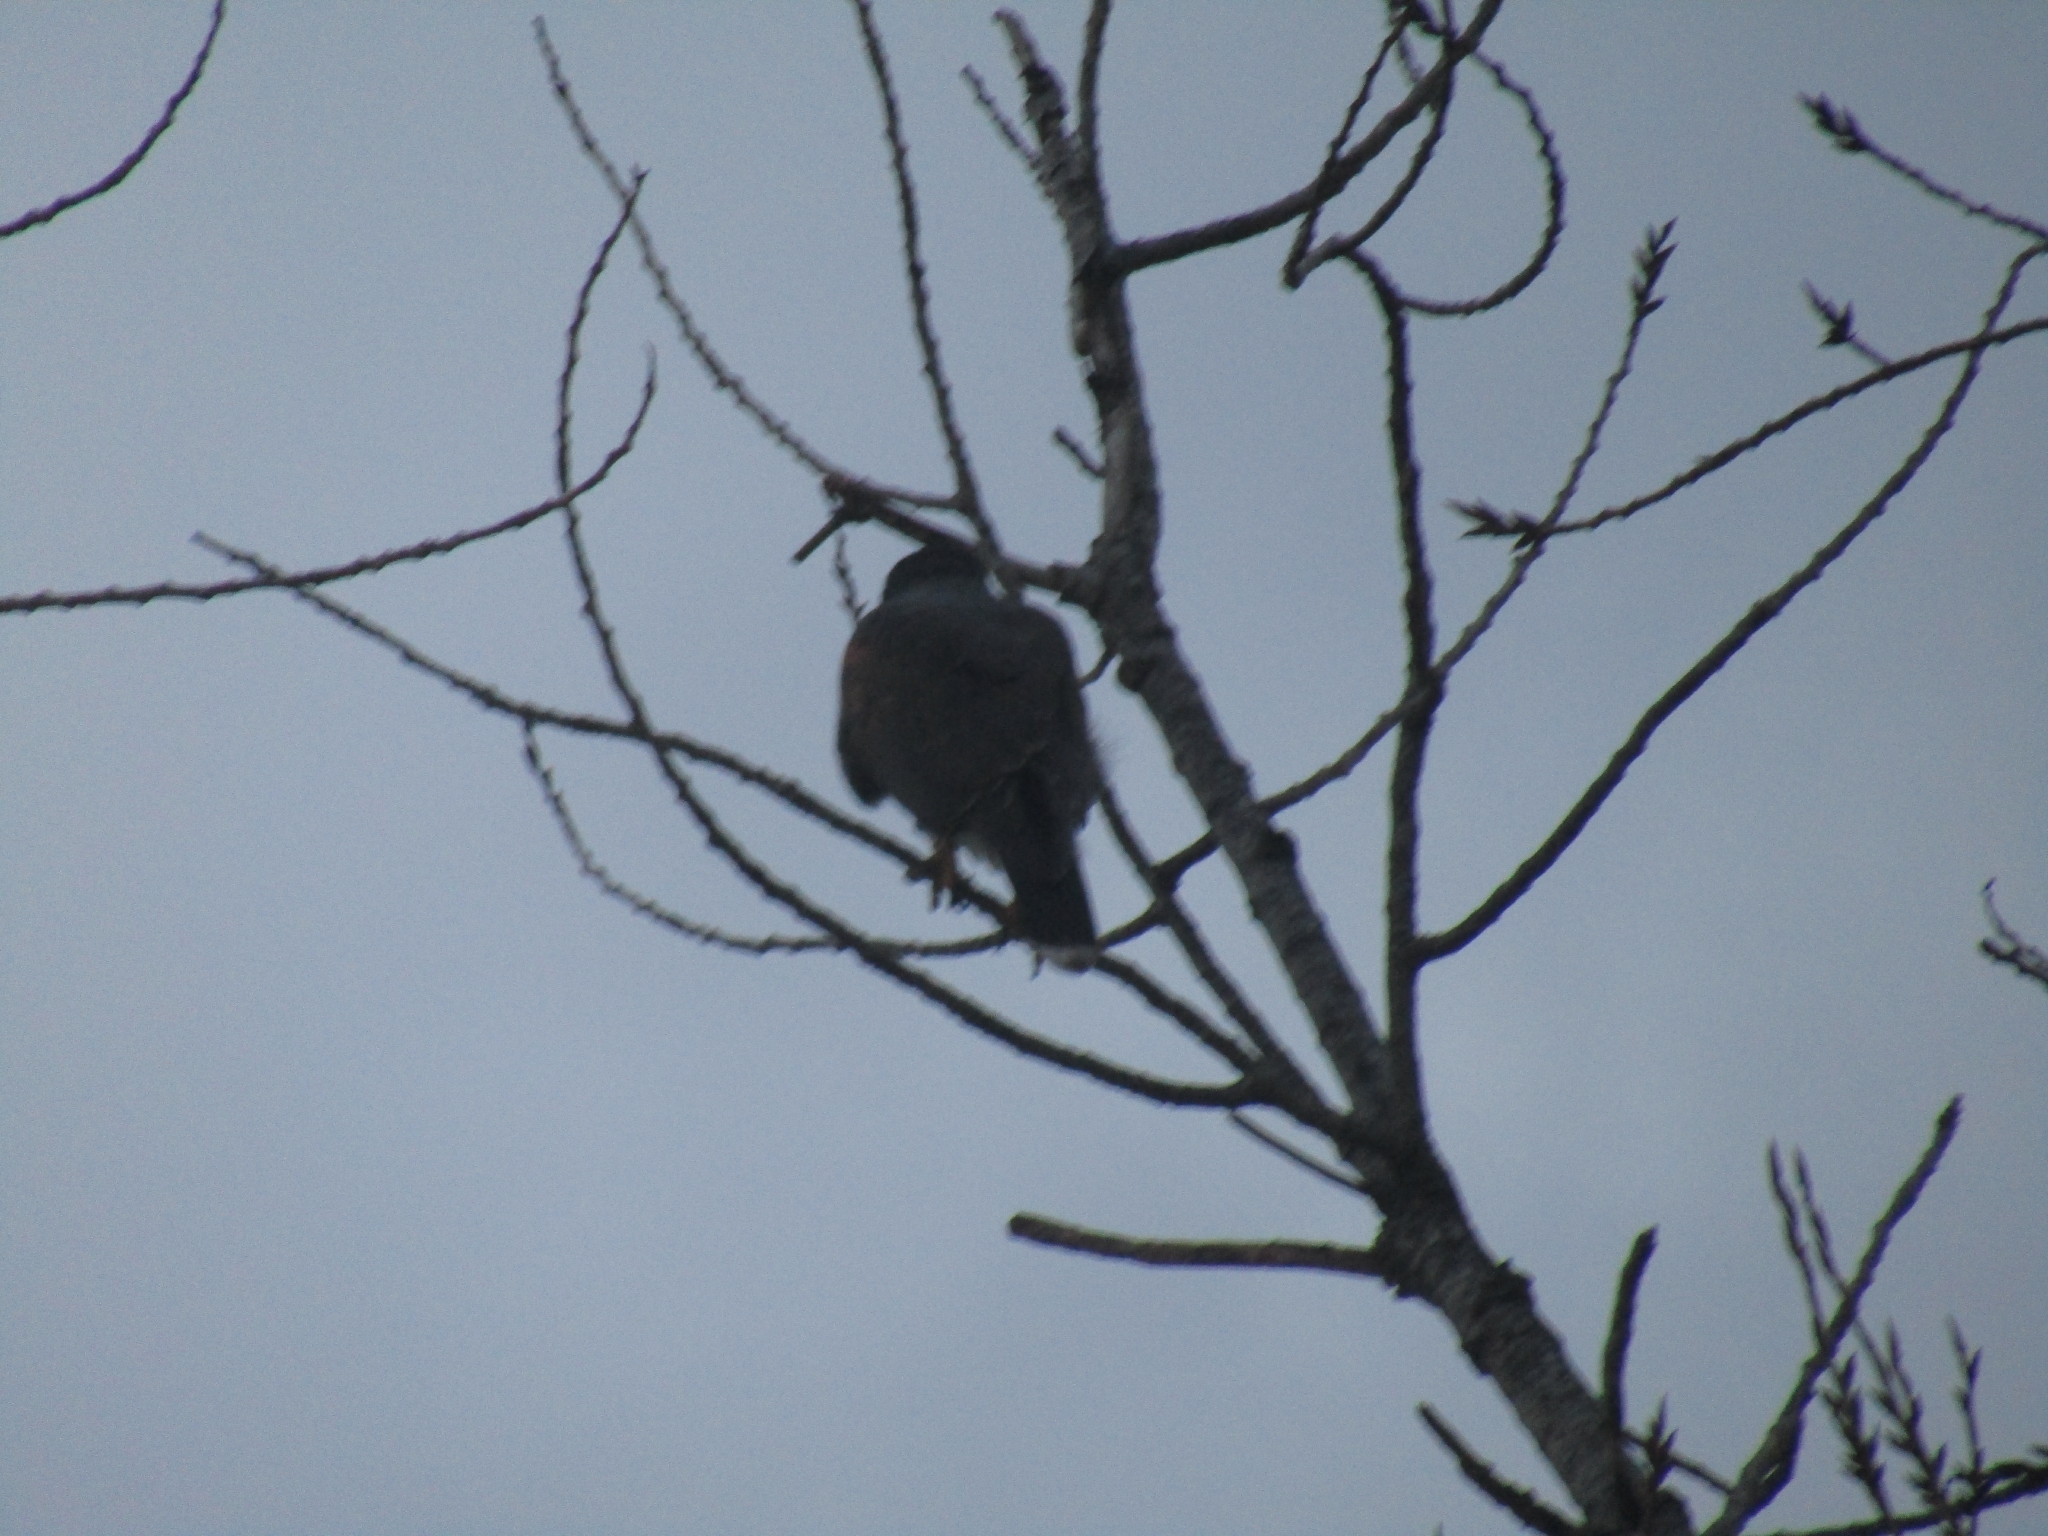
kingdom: Animalia
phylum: Chordata
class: Aves
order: Accipitriformes
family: Accipitridae
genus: Parabuteo
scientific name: Parabuteo unicinctus
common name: Harris's hawk
